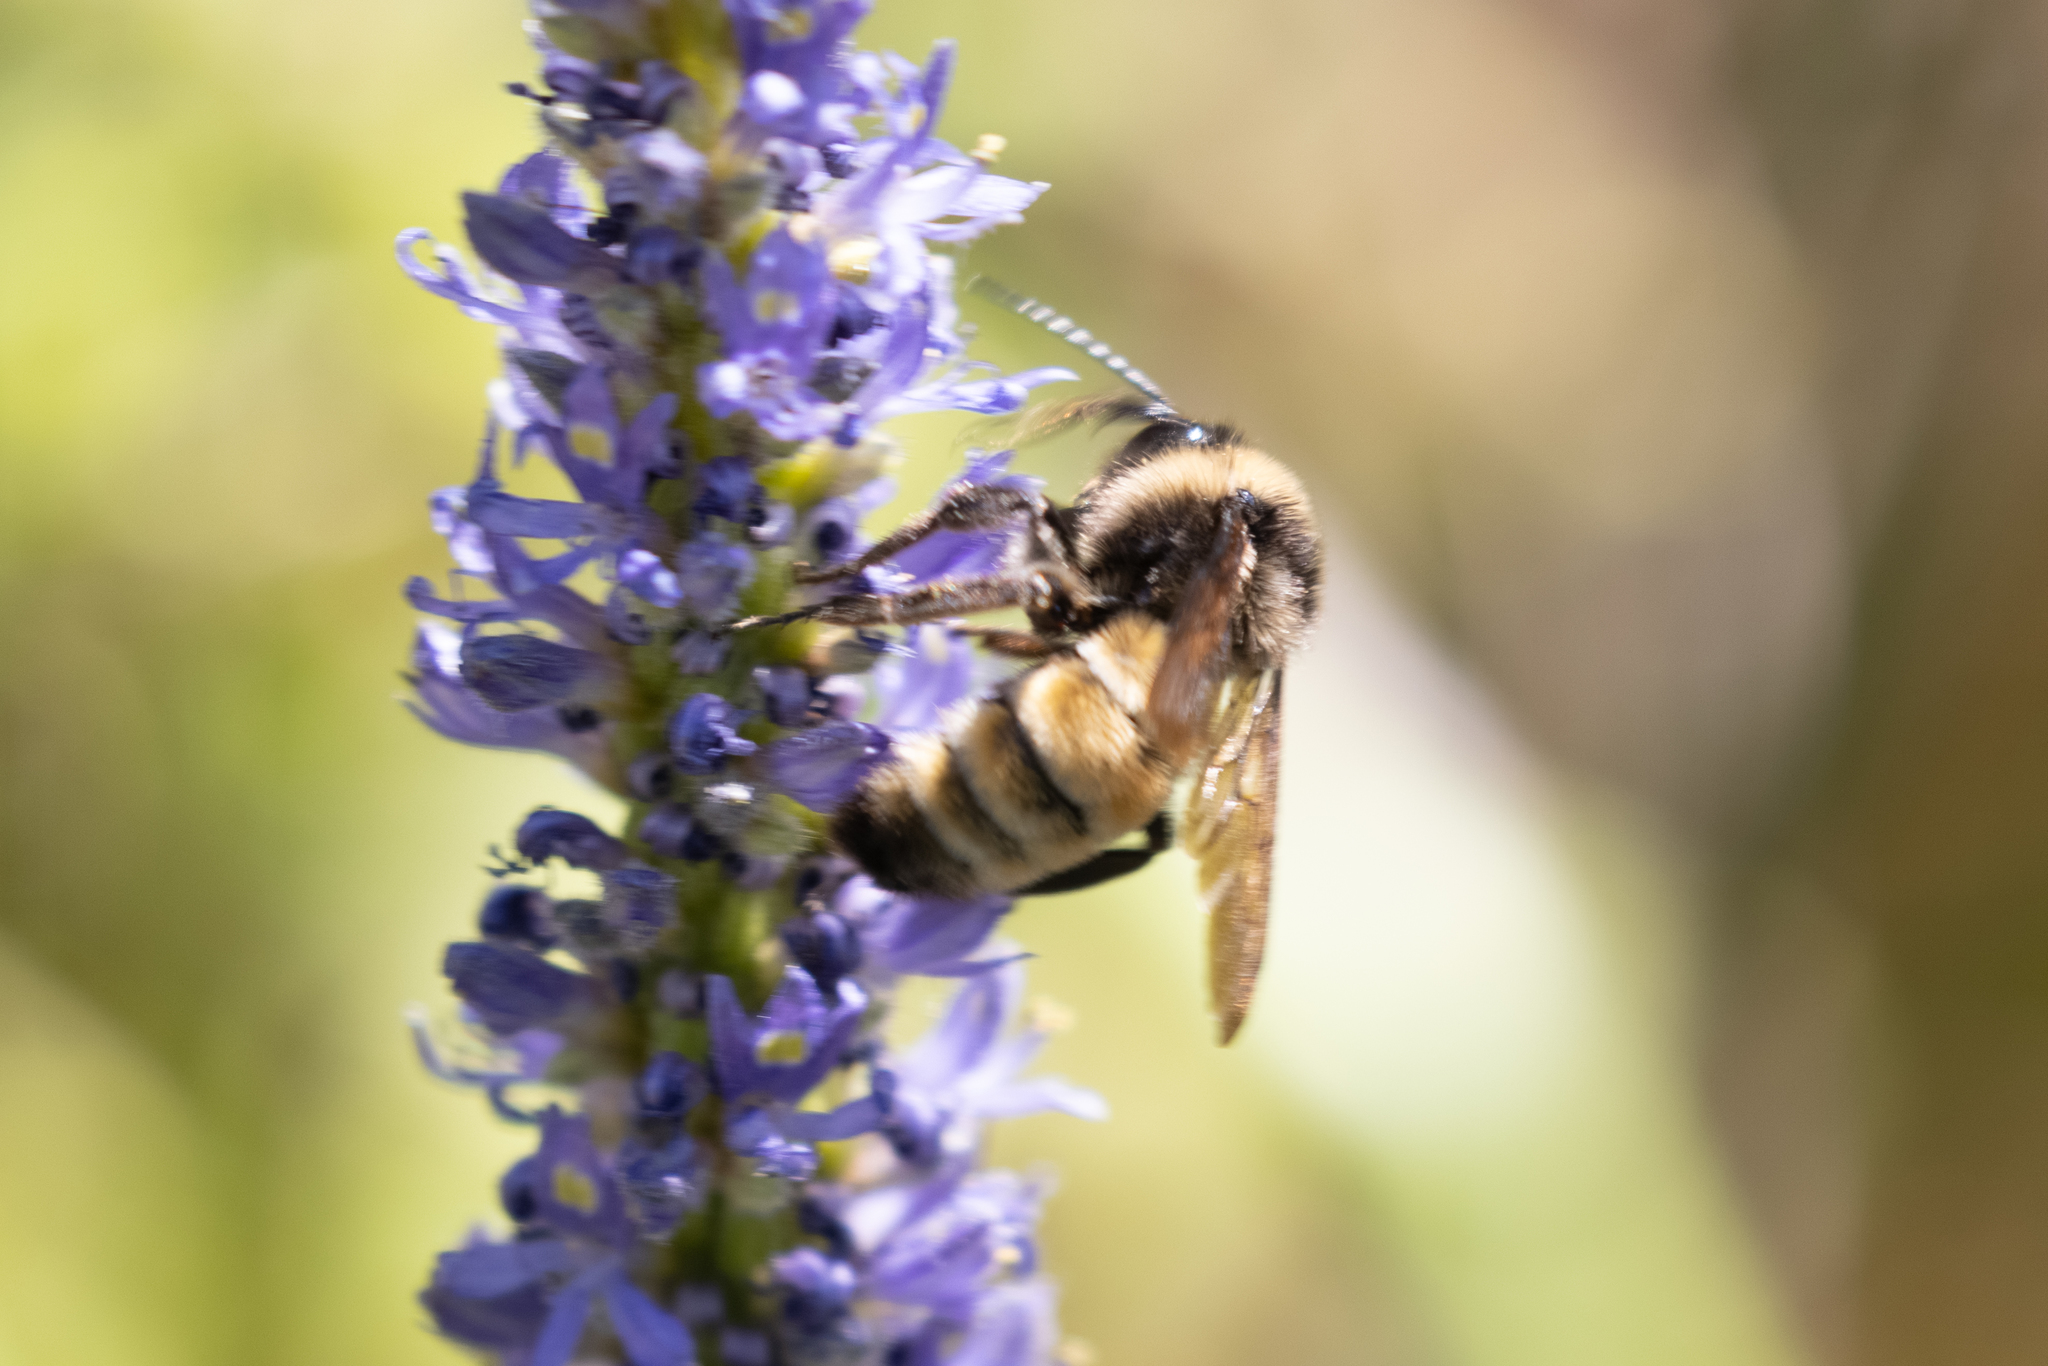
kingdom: Animalia
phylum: Arthropoda
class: Insecta
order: Hymenoptera
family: Apidae
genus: Bombus
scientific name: Bombus pensylvanicus
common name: Bumble bee
